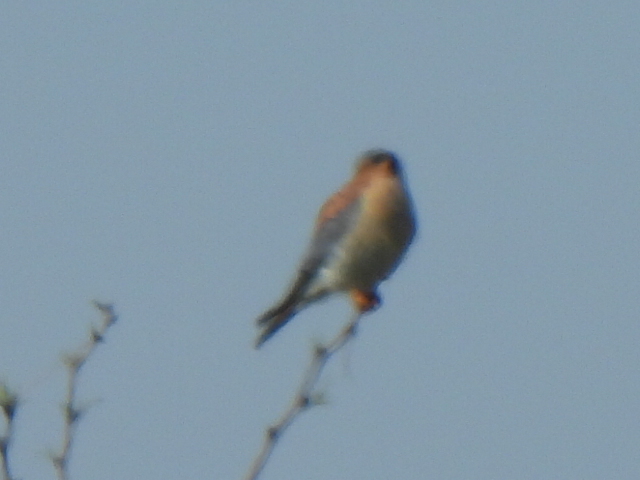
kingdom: Animalia
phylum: Chordata
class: Aves
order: Falconiformes
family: Falconidae
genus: Falco
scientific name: Falco sparverius
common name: American kestrel
